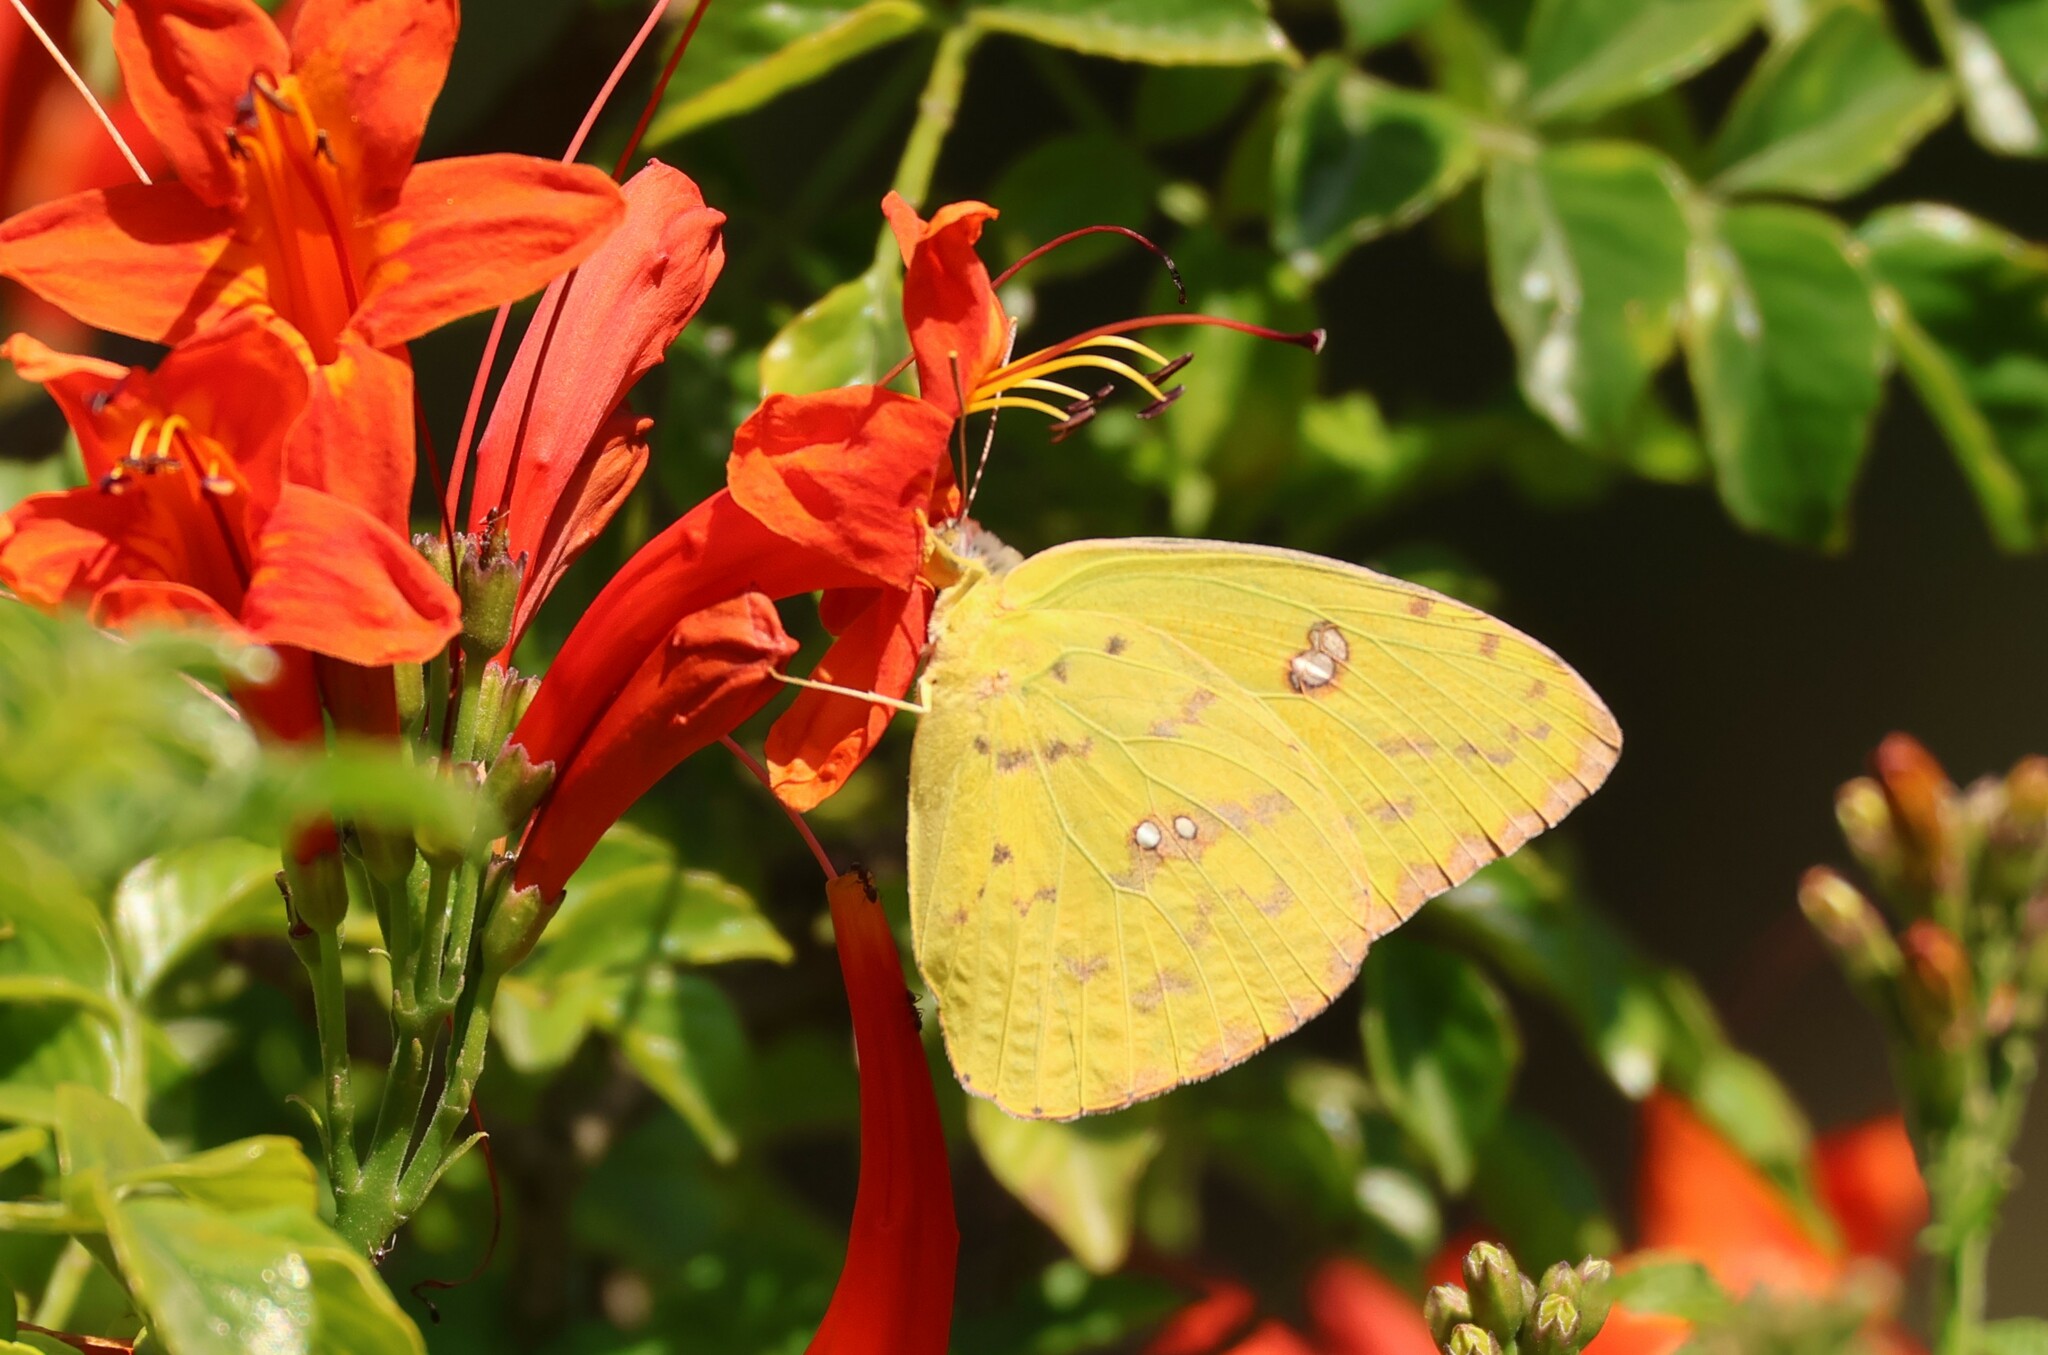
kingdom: Animalia
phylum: Arthropoda
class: Insecta
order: Lepidoptera
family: Pieridae
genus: Phoebis
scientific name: Phoebis sennae
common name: Cloudless sulphur
